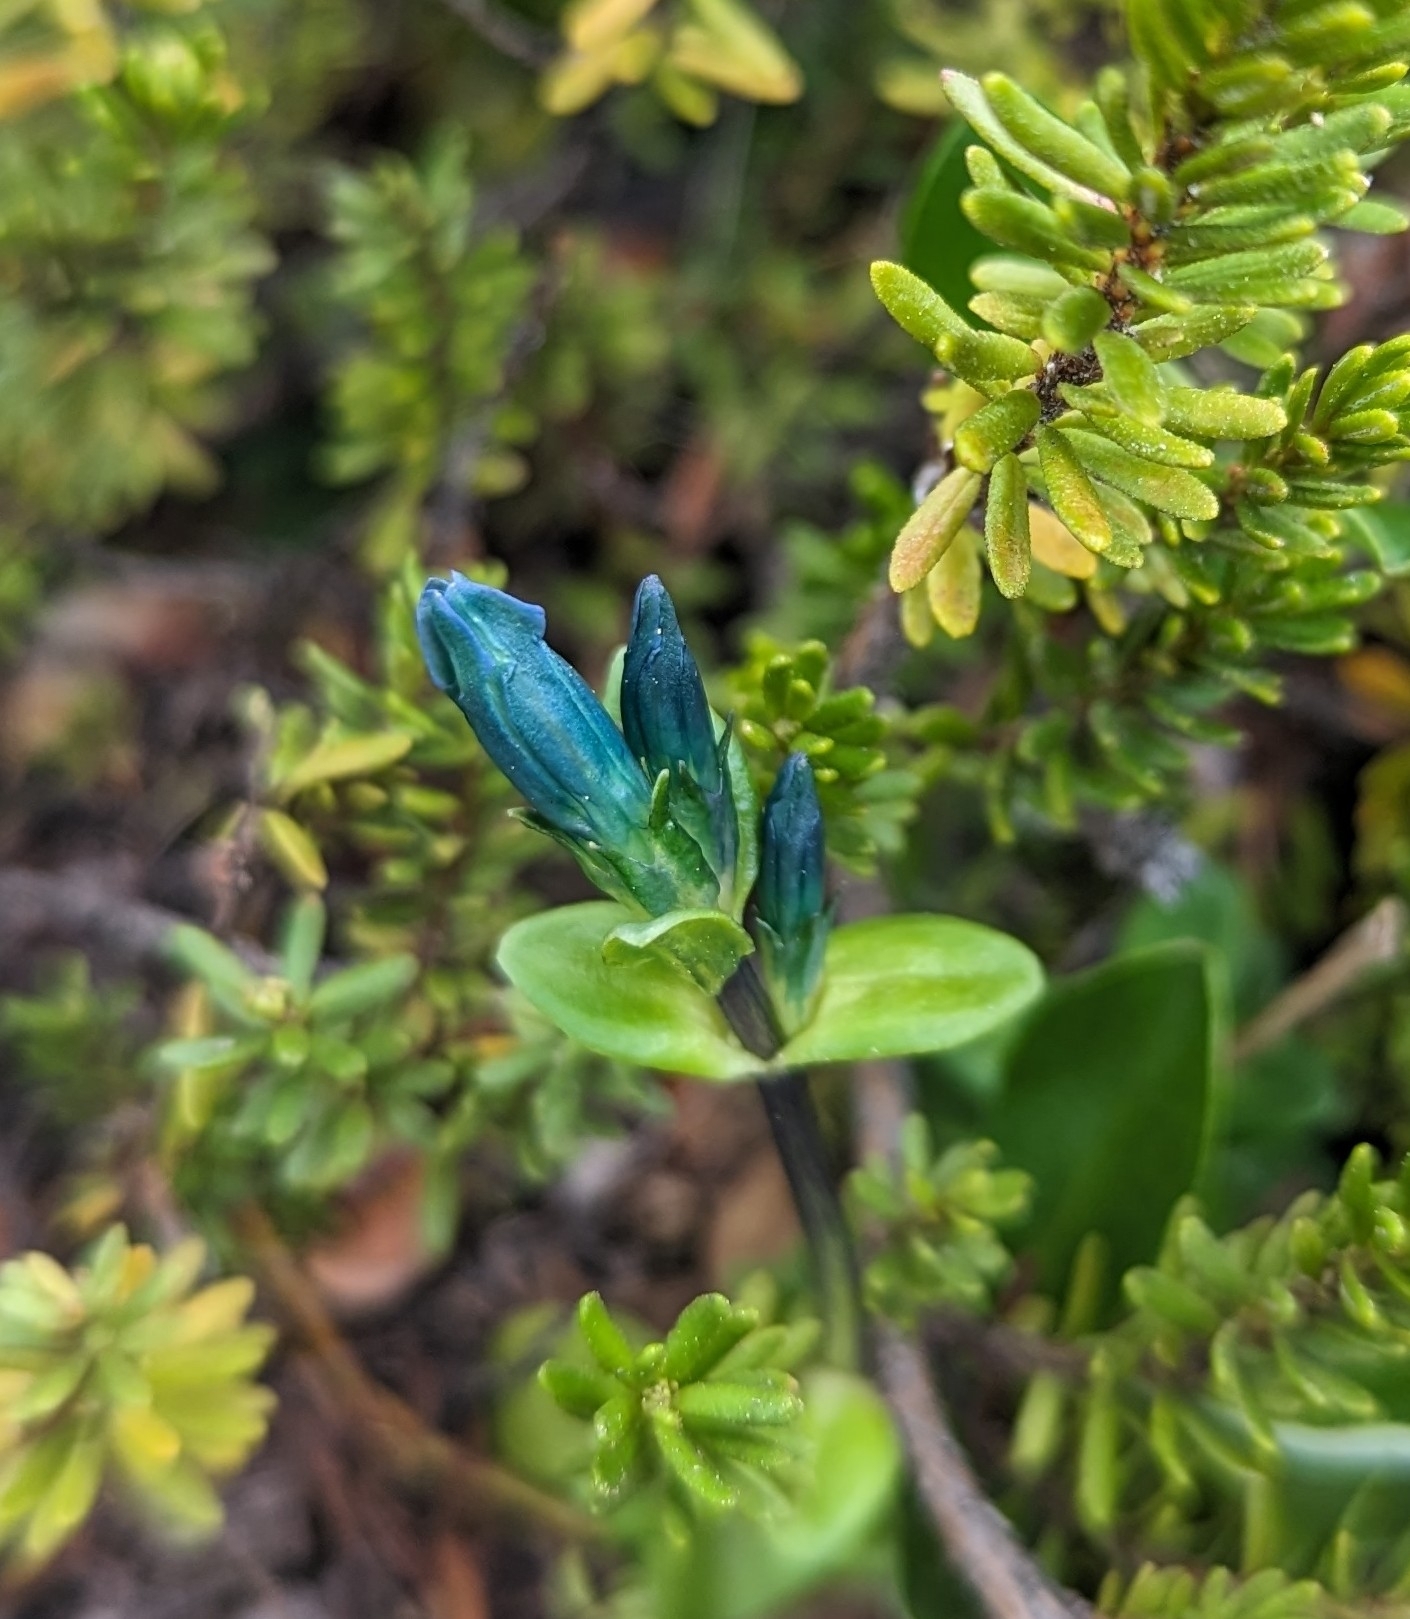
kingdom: Plantae
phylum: Tracheophyta
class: Magnoliopsida
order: Gentianales
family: Gentianaceae
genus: Gentiana
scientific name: Gentiana glauca
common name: Alpine gentian
